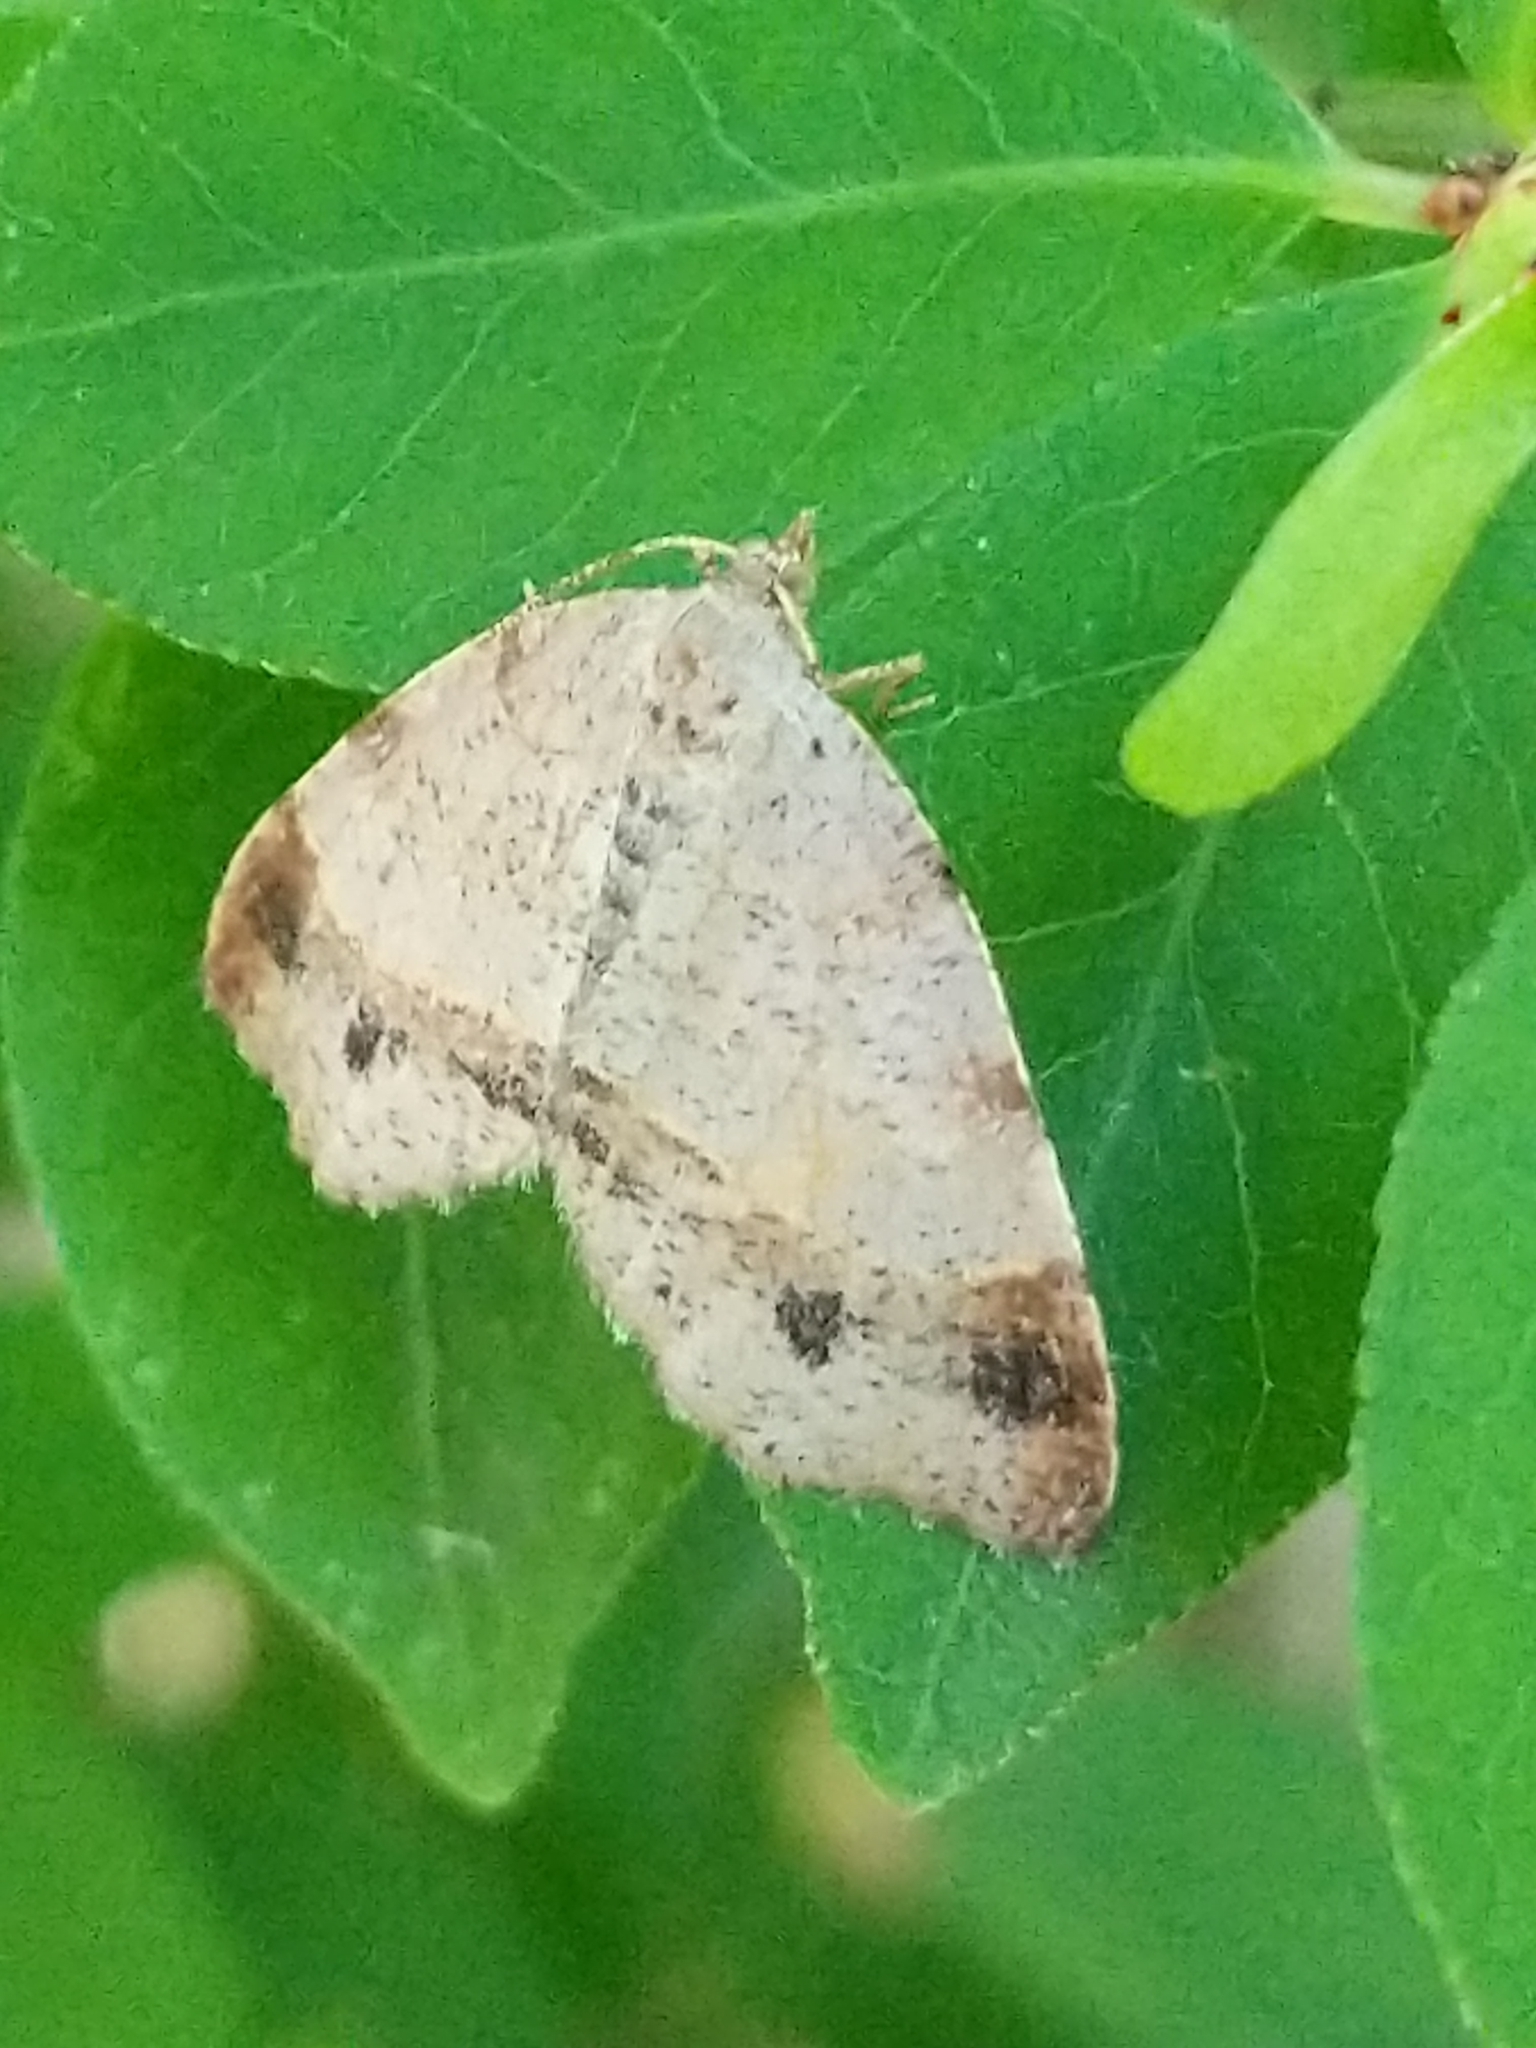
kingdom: Animalia
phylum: Arthropoda
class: Insecta
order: Lepidoptera
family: Geometridae
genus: Mellilla
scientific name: Mellilla xanthometata
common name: Orange wing moth
